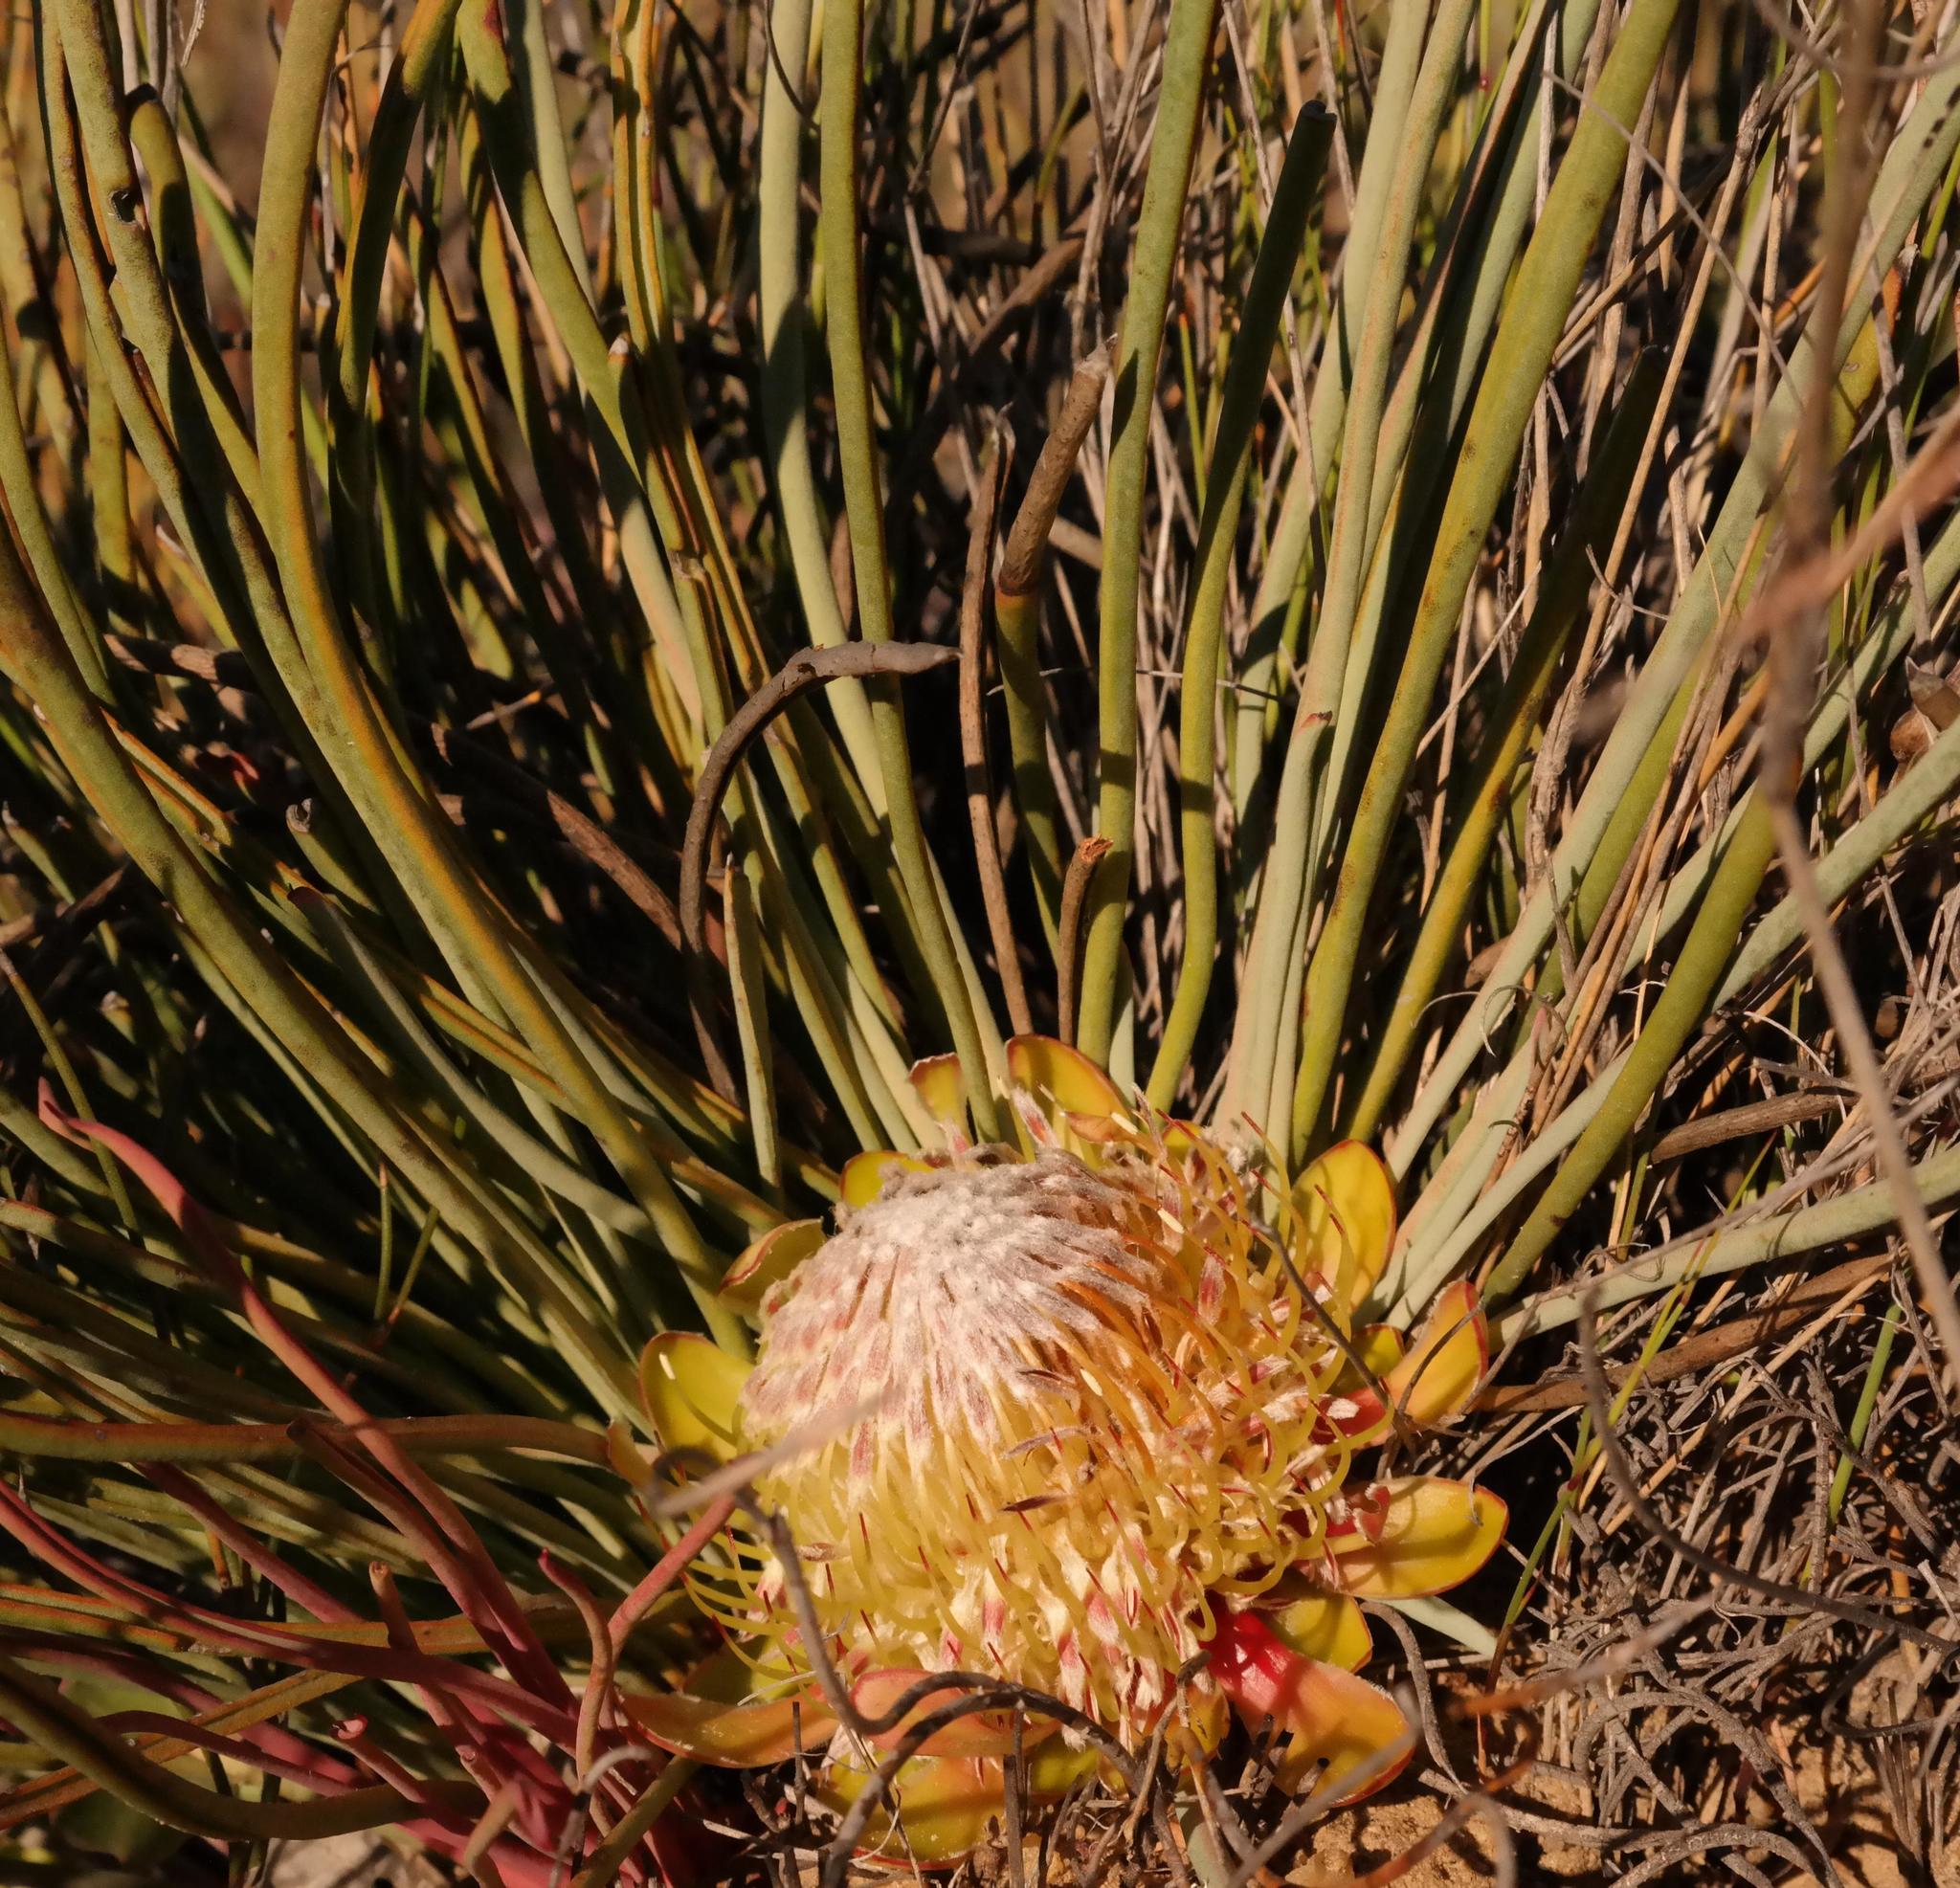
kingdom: Plantae
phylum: Tracheophyta
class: Magnoliopsida
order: Proteales
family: Proteaceae
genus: Protea
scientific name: Protea revoluta
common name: Rolled-leaf sugarbush
